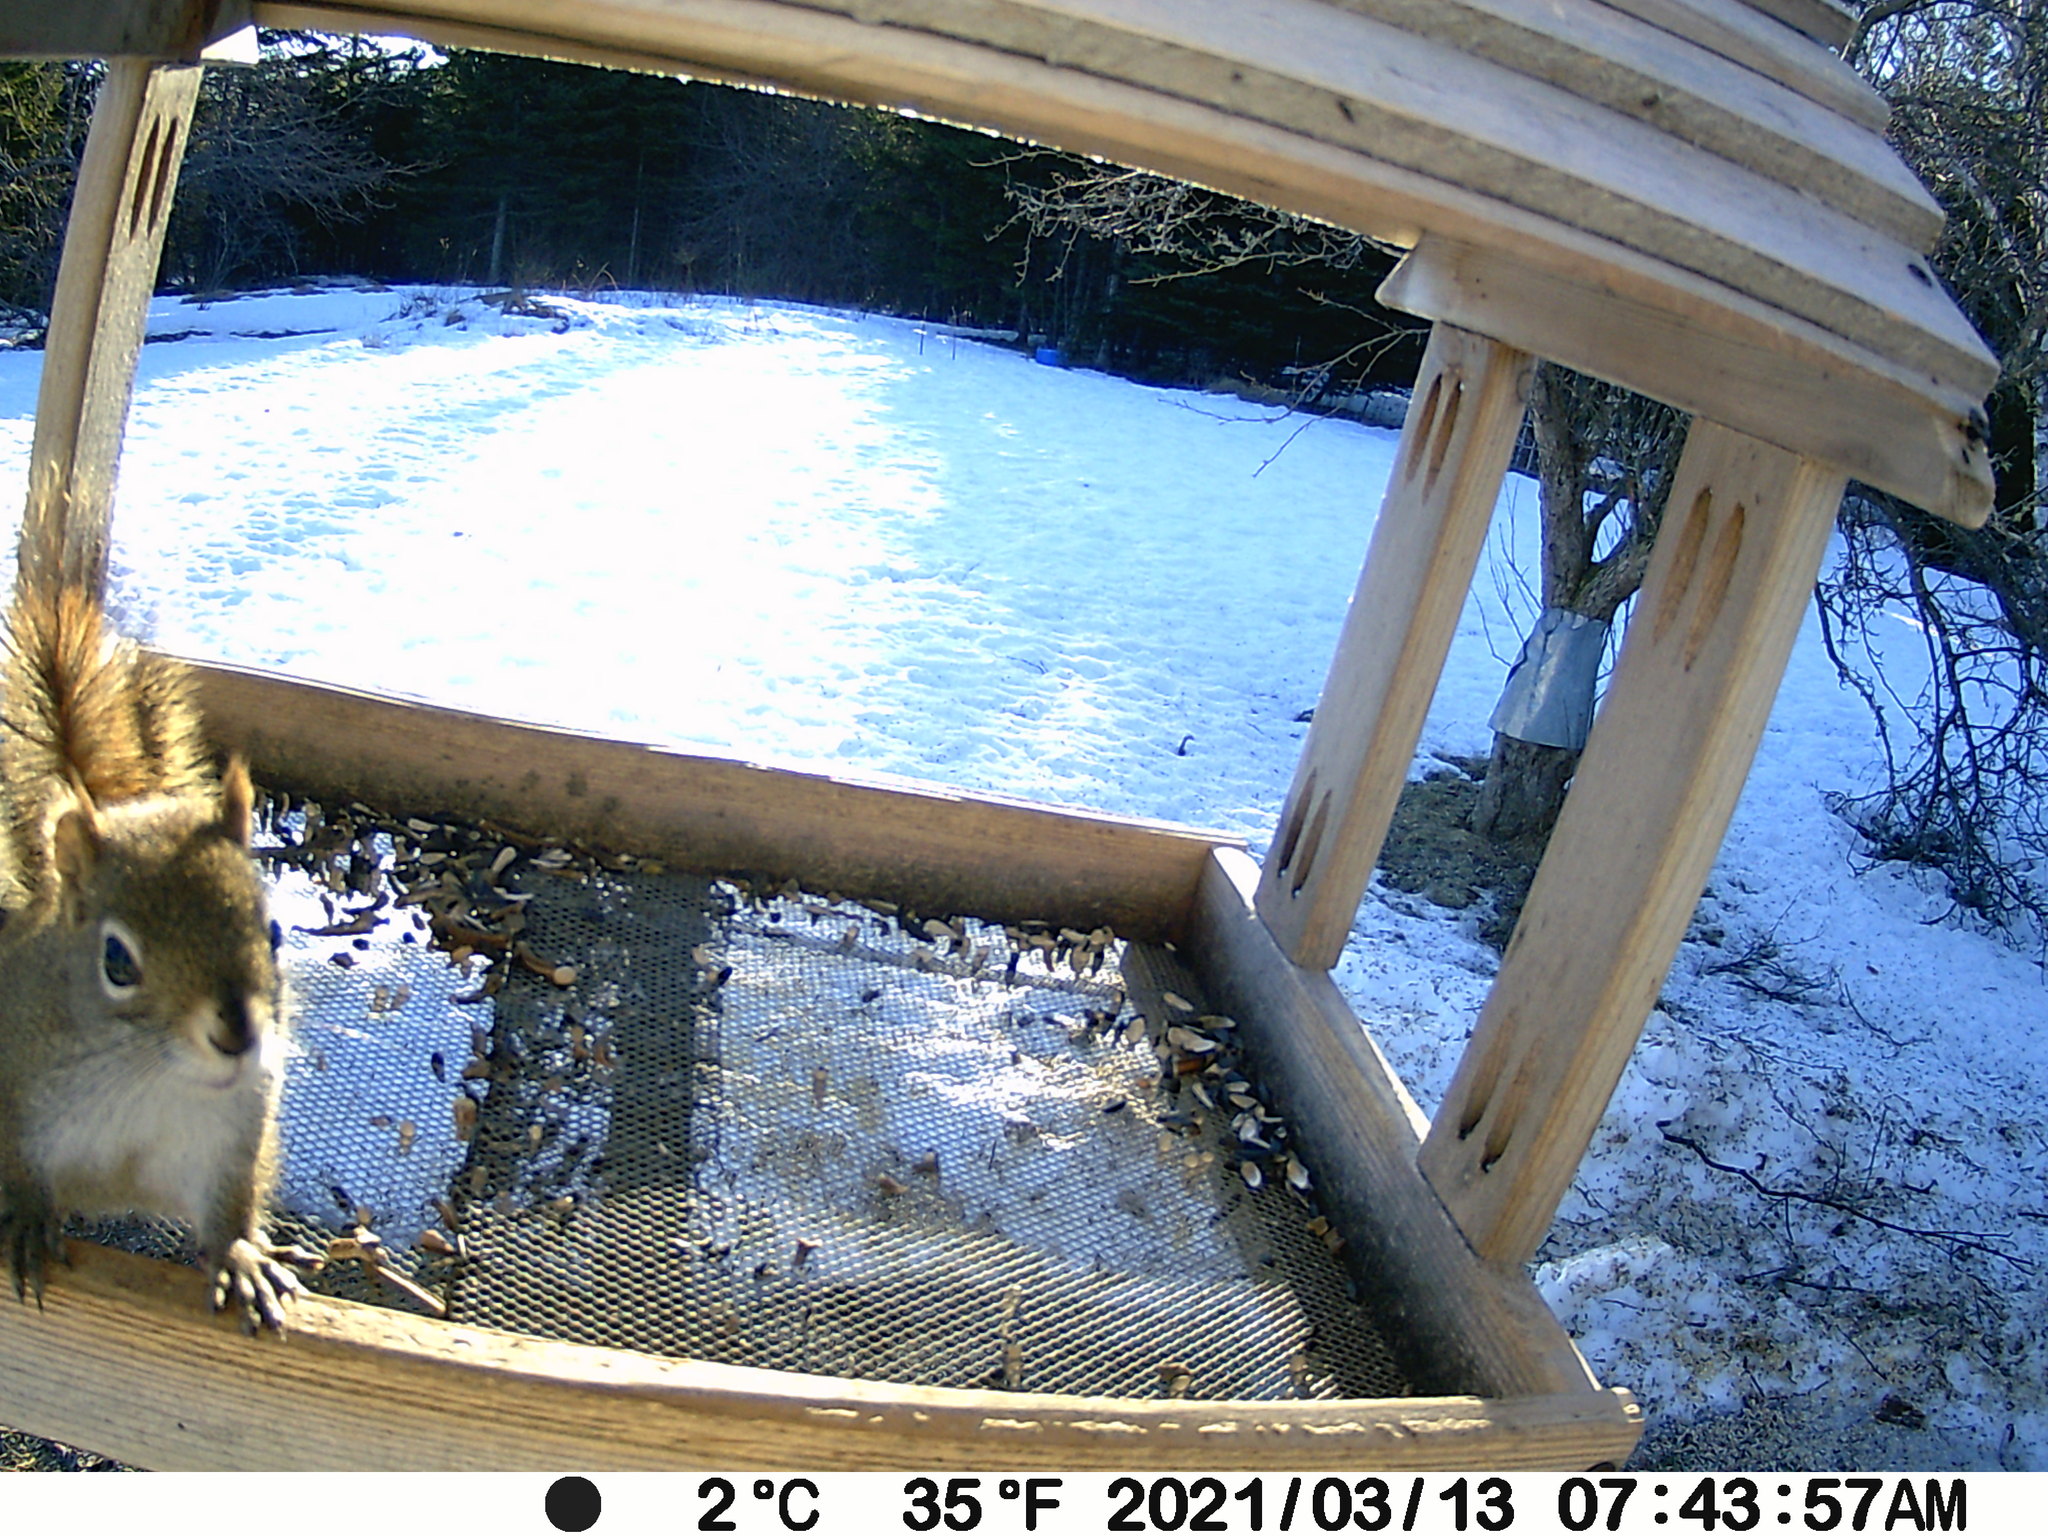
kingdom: Animalia
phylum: Chordata
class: Mammalia
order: Rodentia
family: Sciuridae
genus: Tamiasciurus
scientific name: Tamiasciurus hudsonicus
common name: Red squirrel
